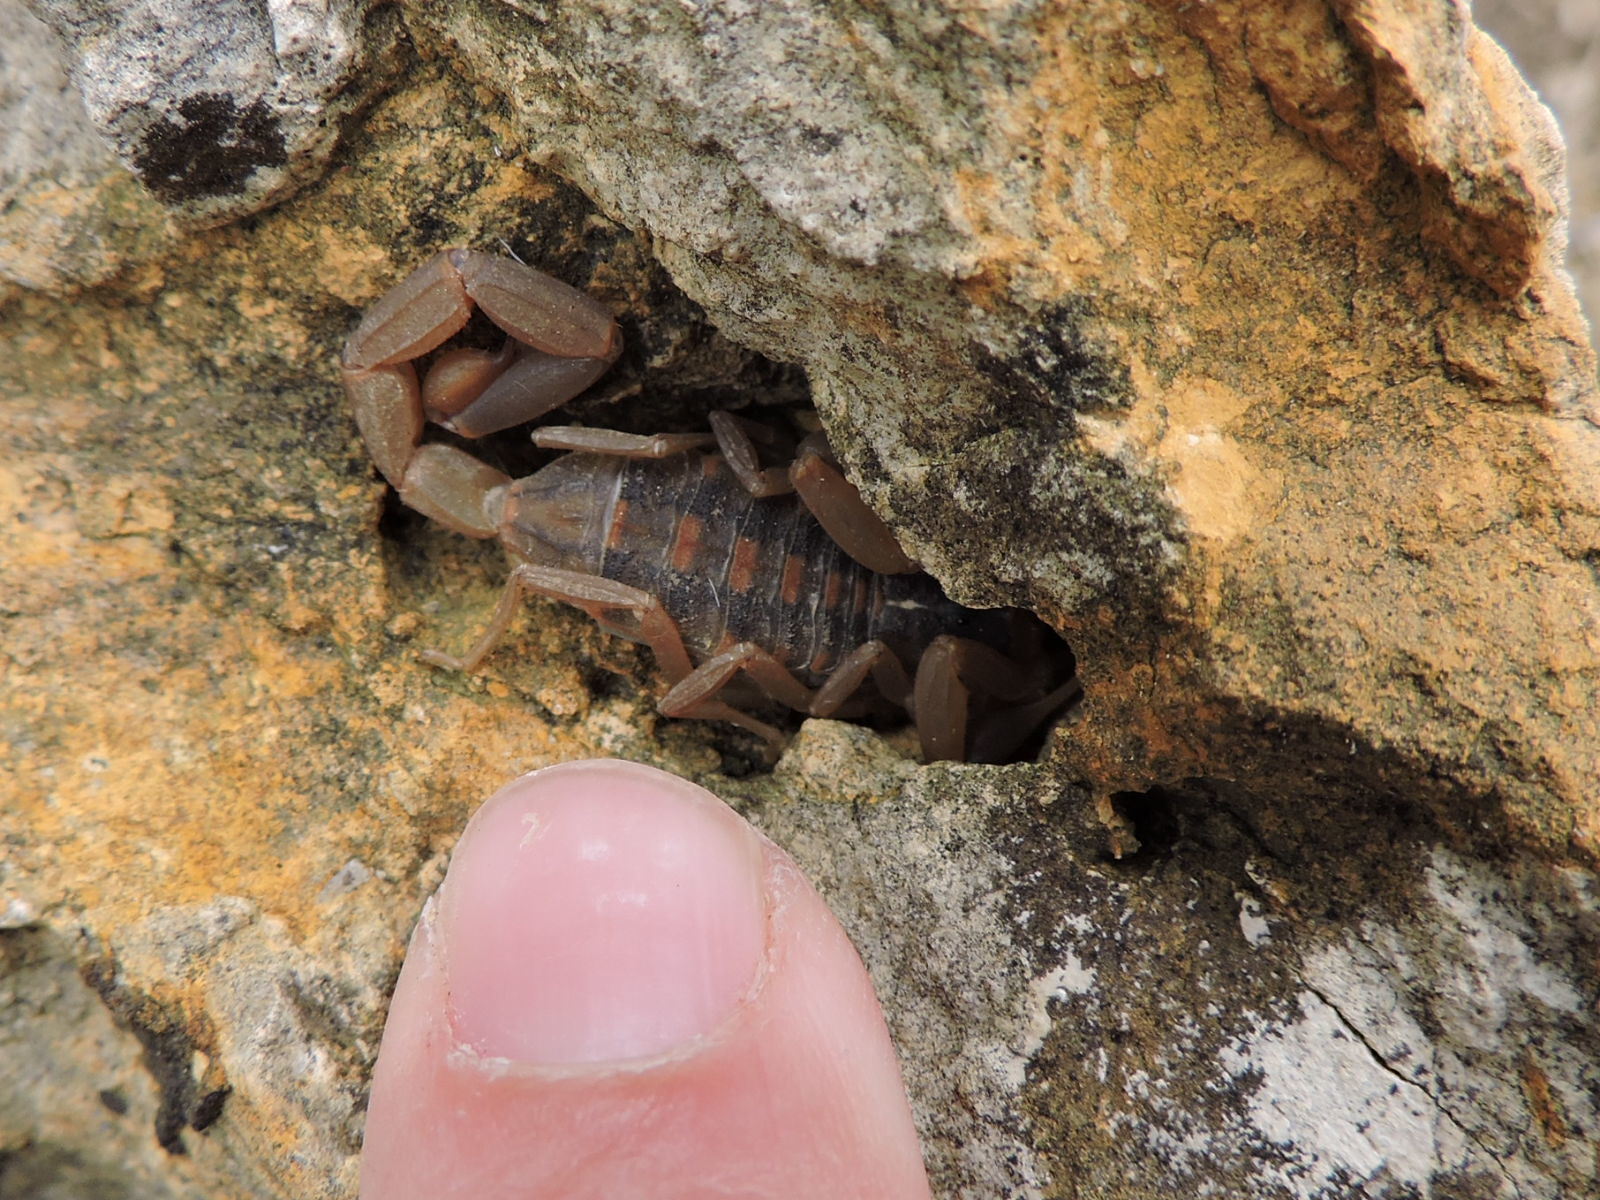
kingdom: Animalia
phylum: Arthropoda
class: Arachnida
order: Scorpiones
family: Buthidae
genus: Centruroides
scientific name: Centruroides vittatus
